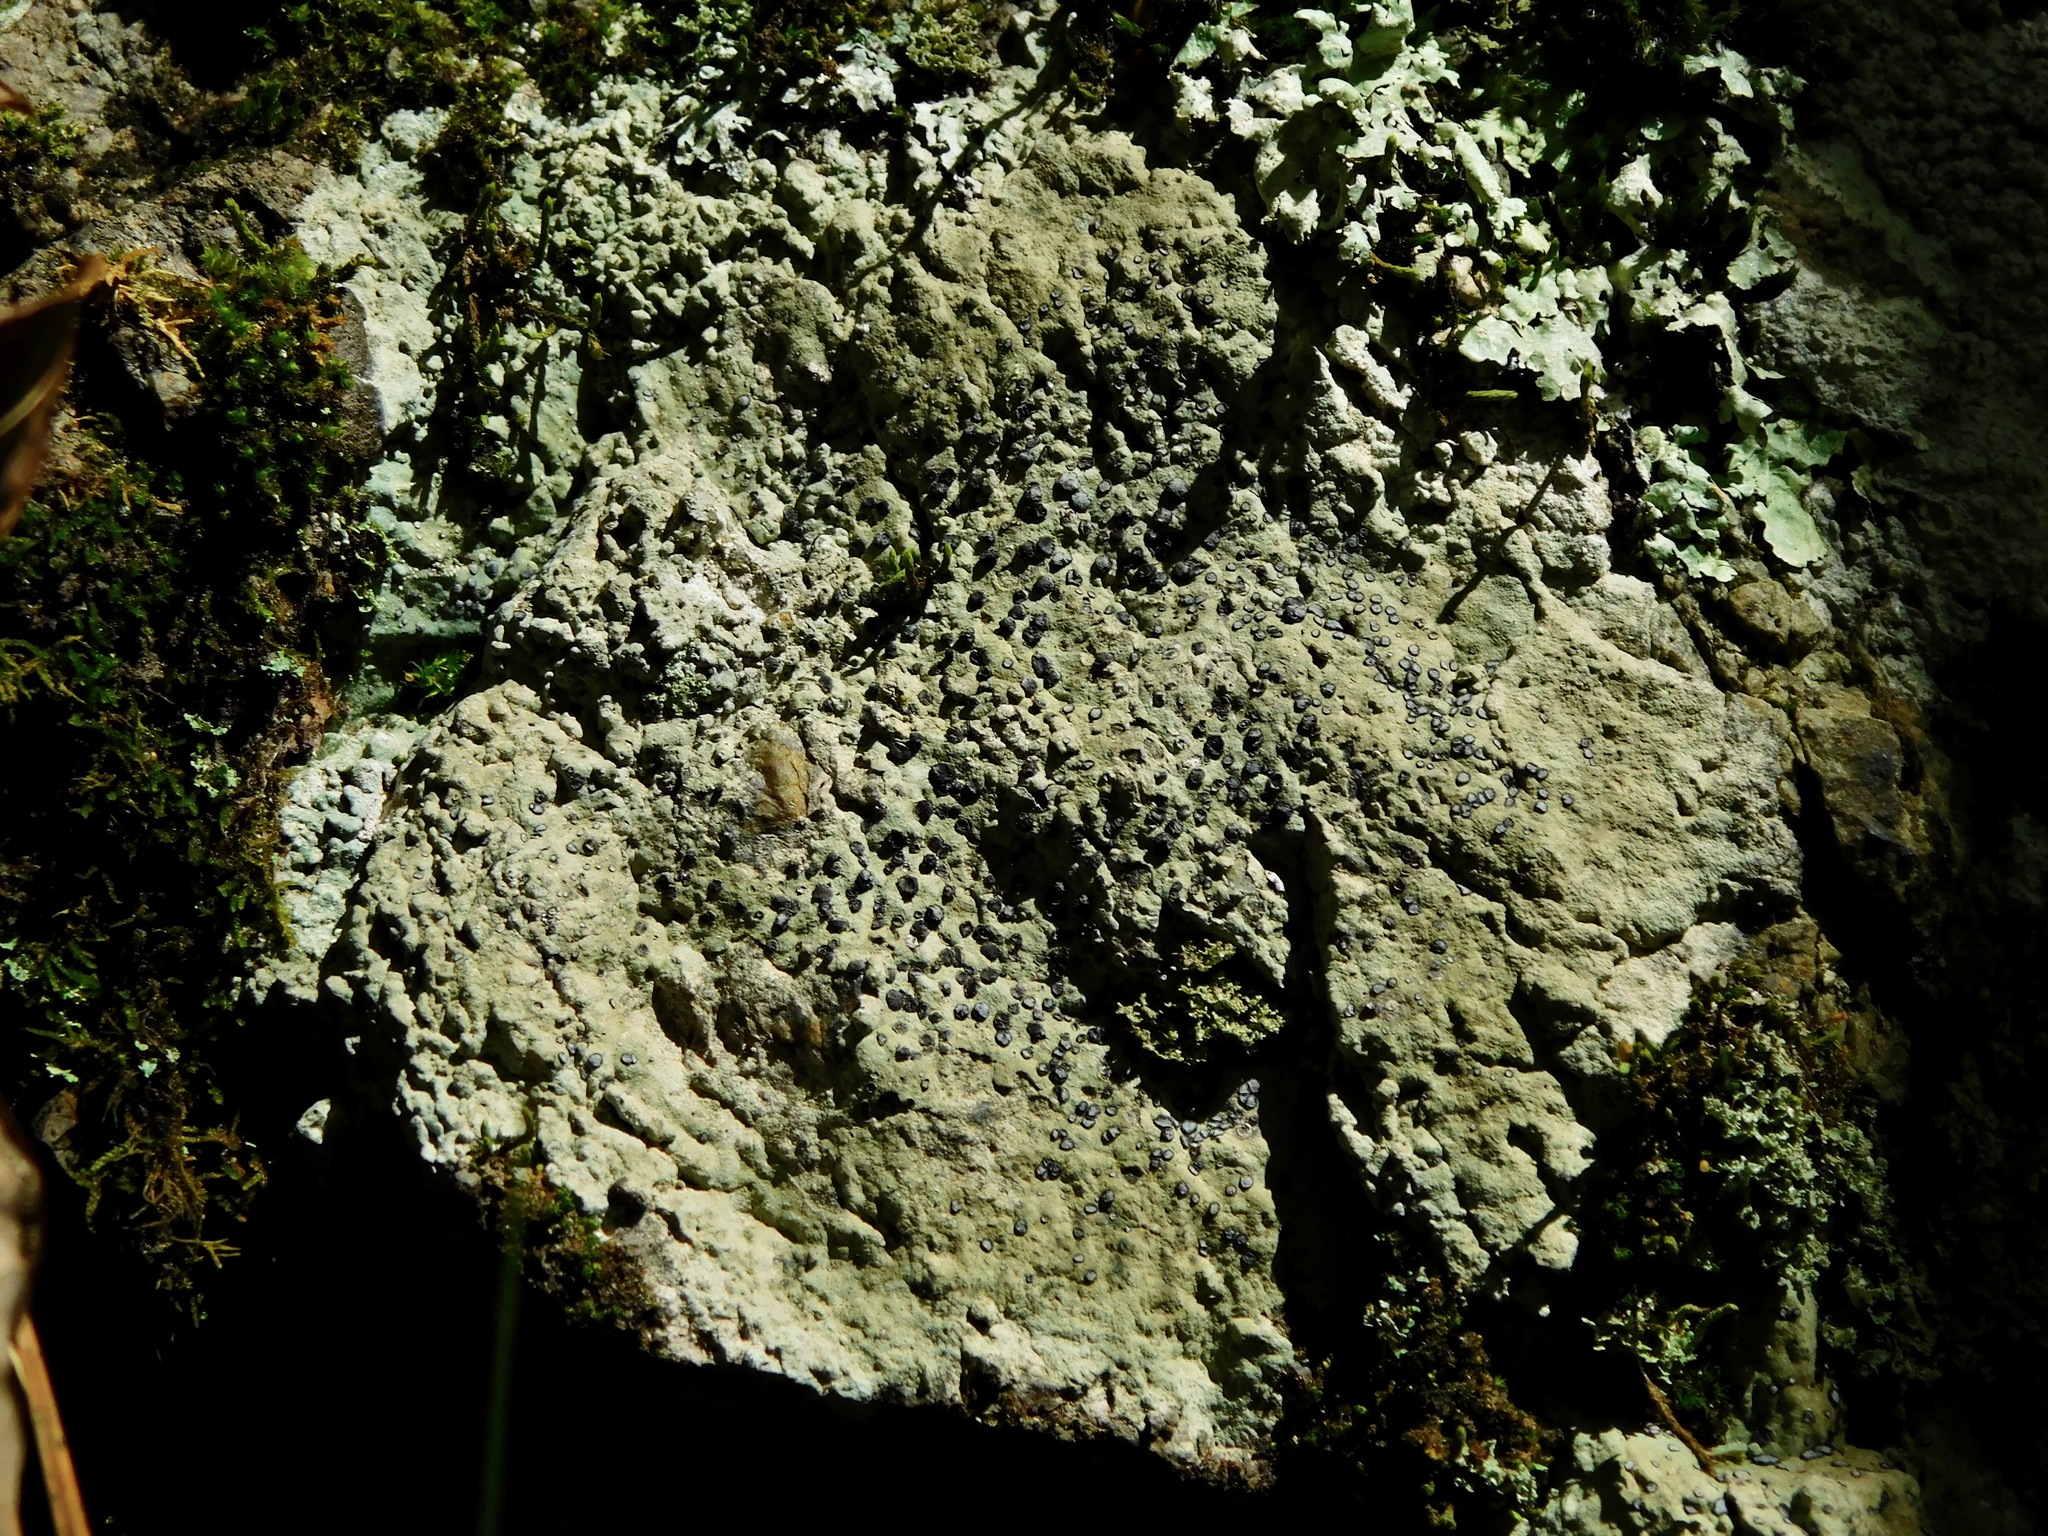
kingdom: Fungi
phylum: Ascomycota
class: Lecanoromycetes
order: Lecideales
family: Lecideaceae
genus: Porpidia
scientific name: Porpidia albocaerulescens
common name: Smokey-eyed boulder lichen
